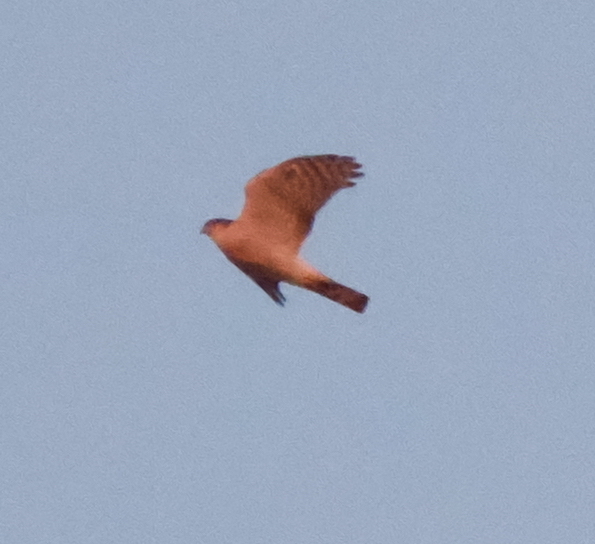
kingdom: Animalia
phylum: Chordata
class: Aves
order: Accipitriformes
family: Accipitridae
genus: Accipiter
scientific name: Accipiter nisus
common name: Eurasian sparrowhawk
